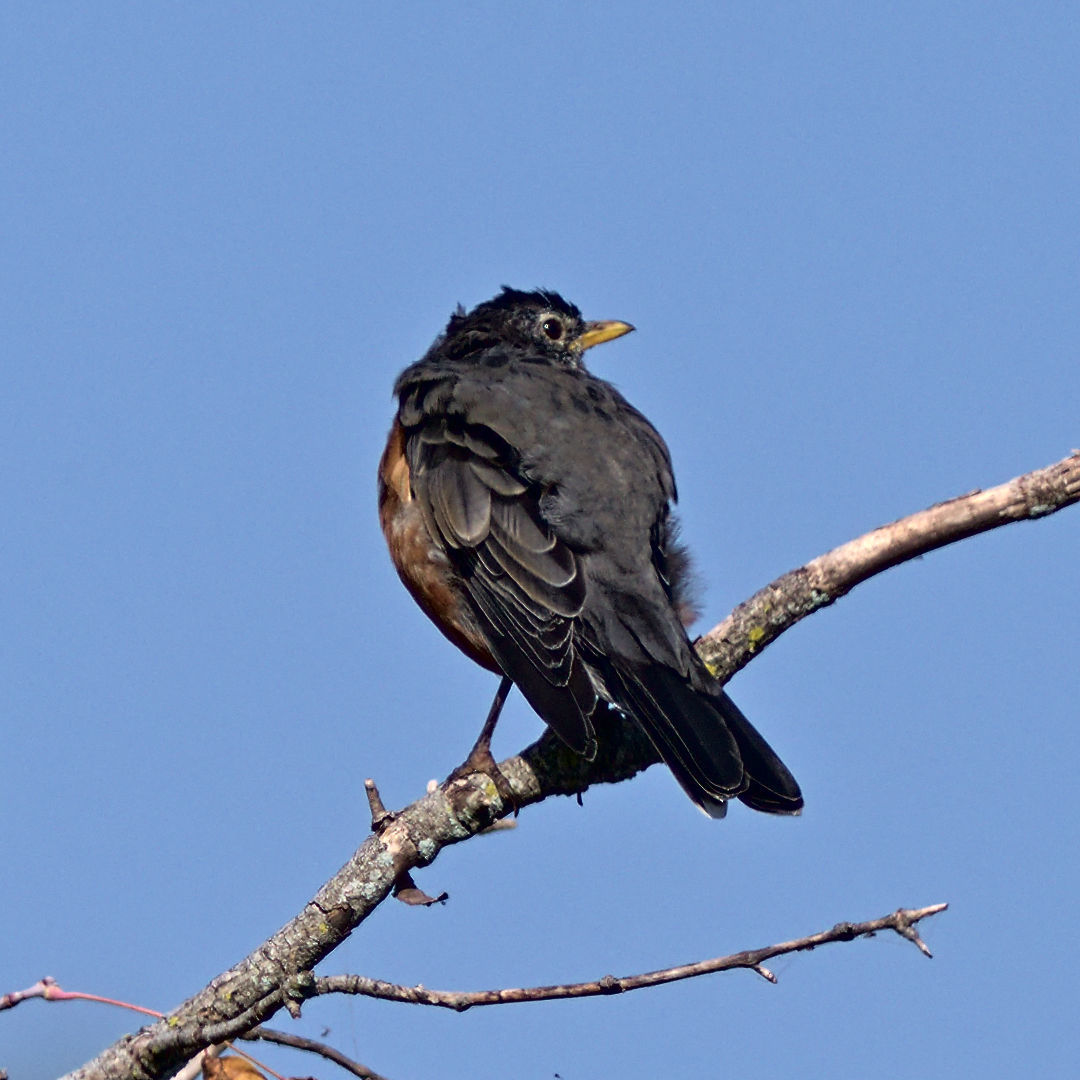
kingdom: Animalia
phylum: Chordata
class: Aves
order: Passeriformes
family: Turdidae
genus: Turdus
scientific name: Turdus migratorius
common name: American robin
